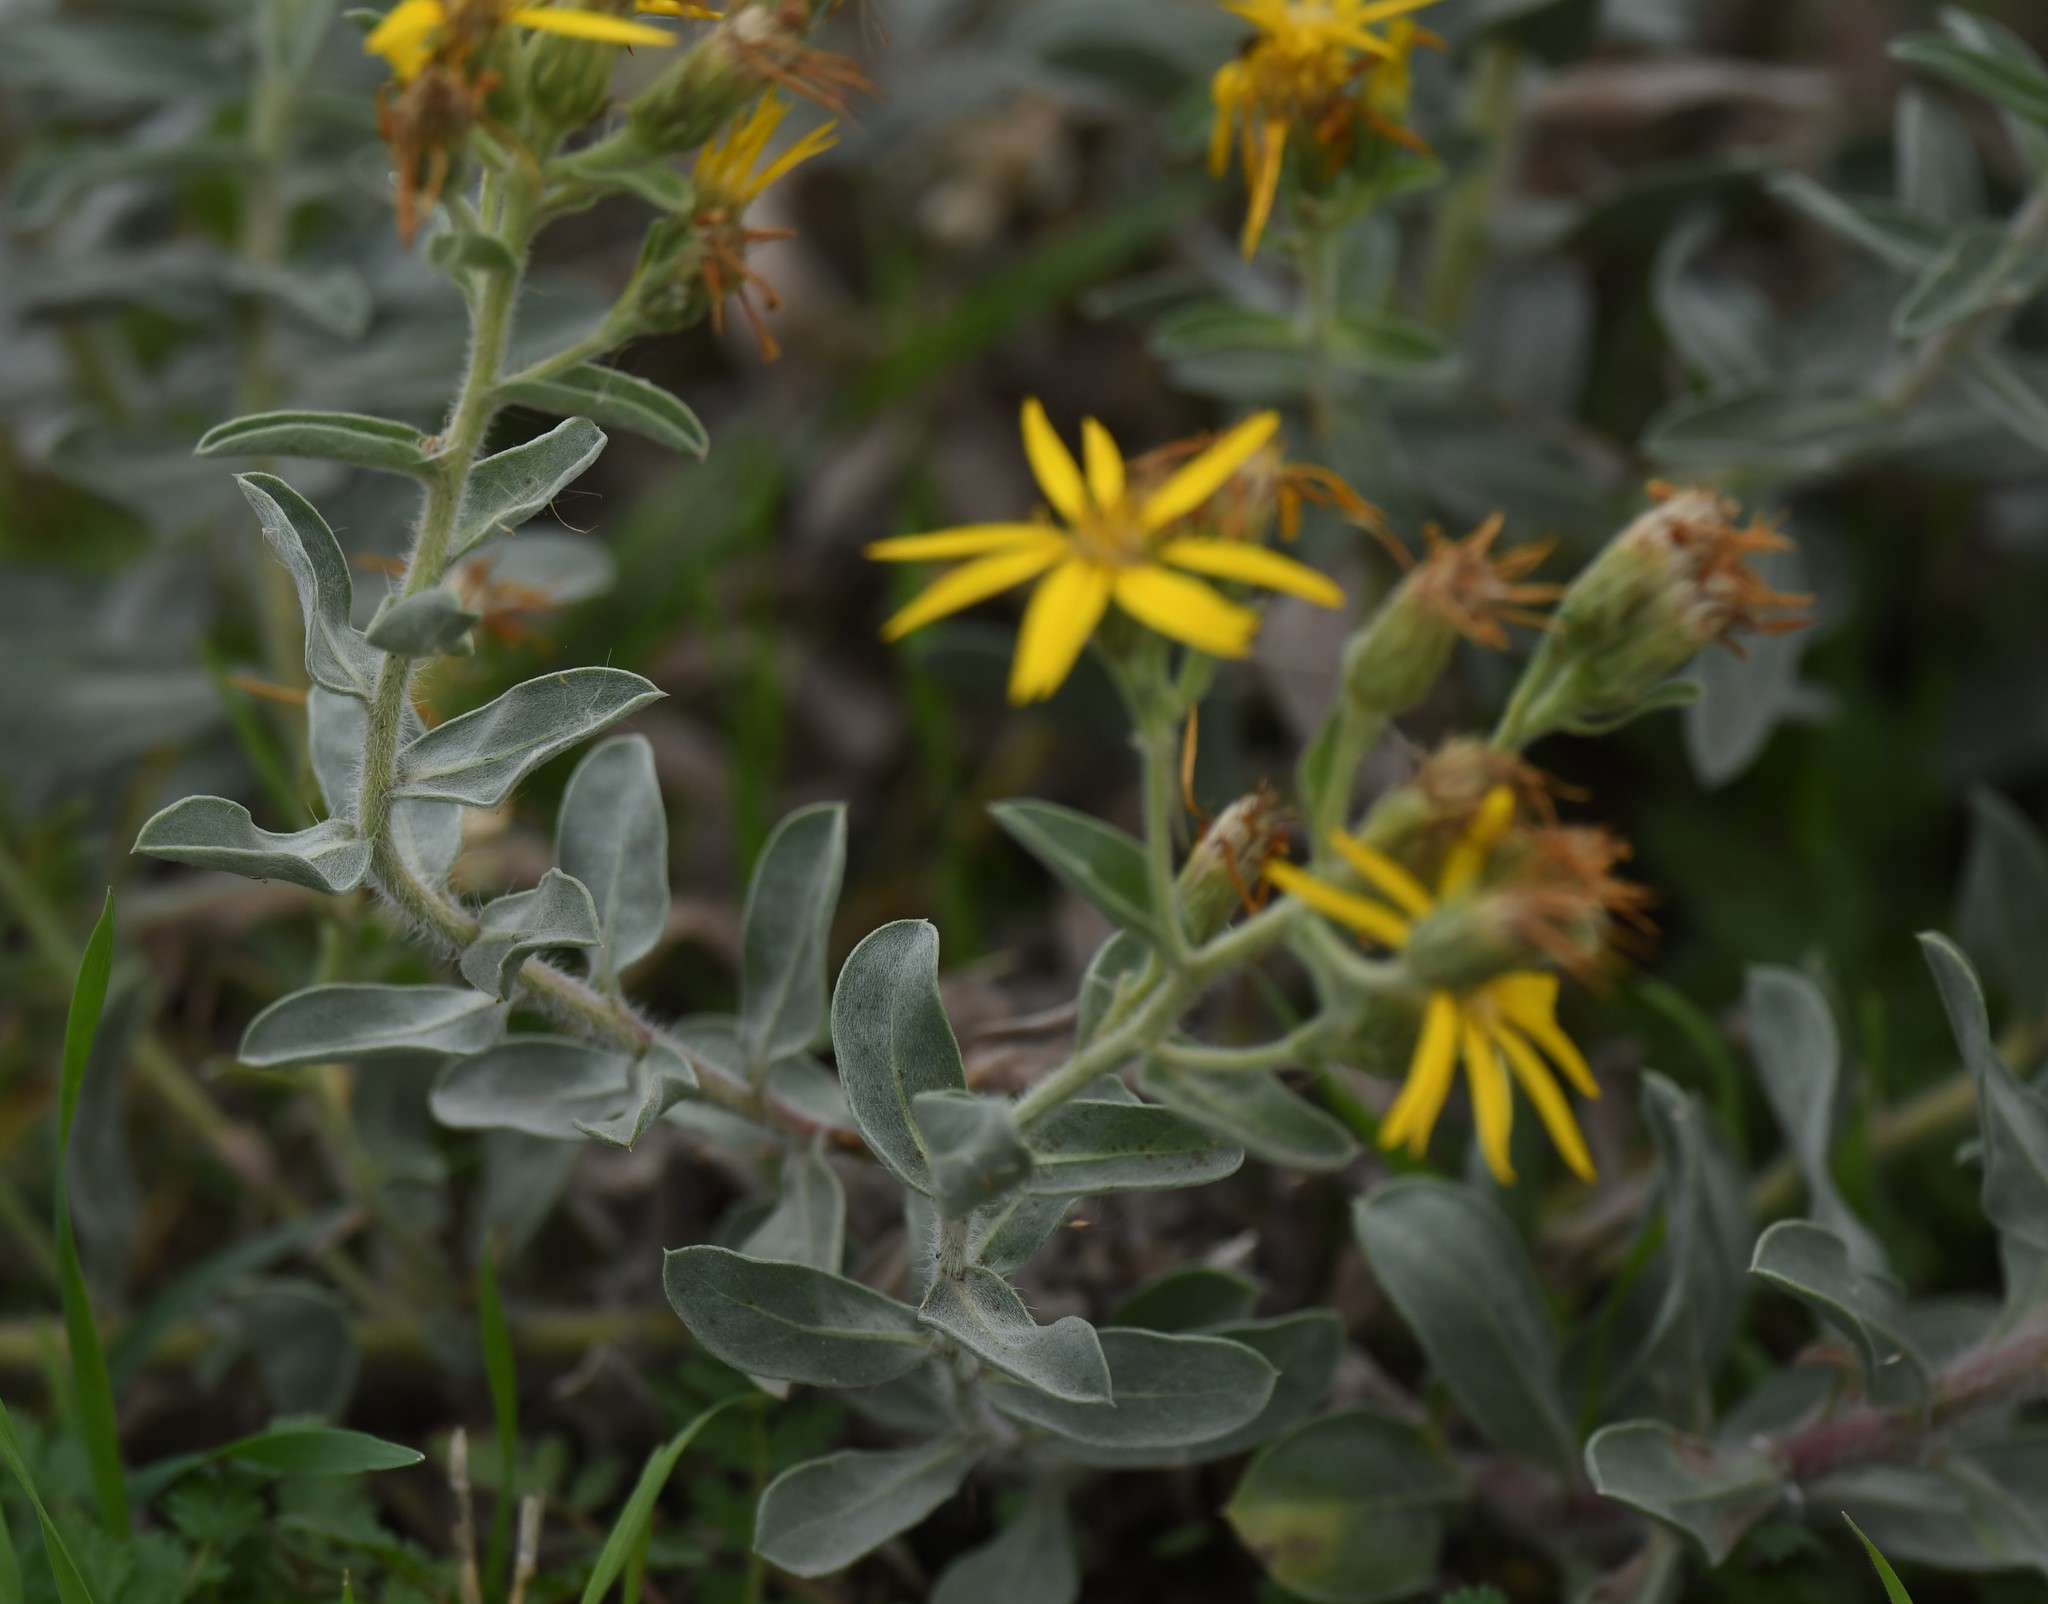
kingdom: Plantae
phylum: Tracheophyta
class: Magnoliopsida
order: Asterales
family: Asteraceae
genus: Heterotheca
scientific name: Heterotheca utahensis
